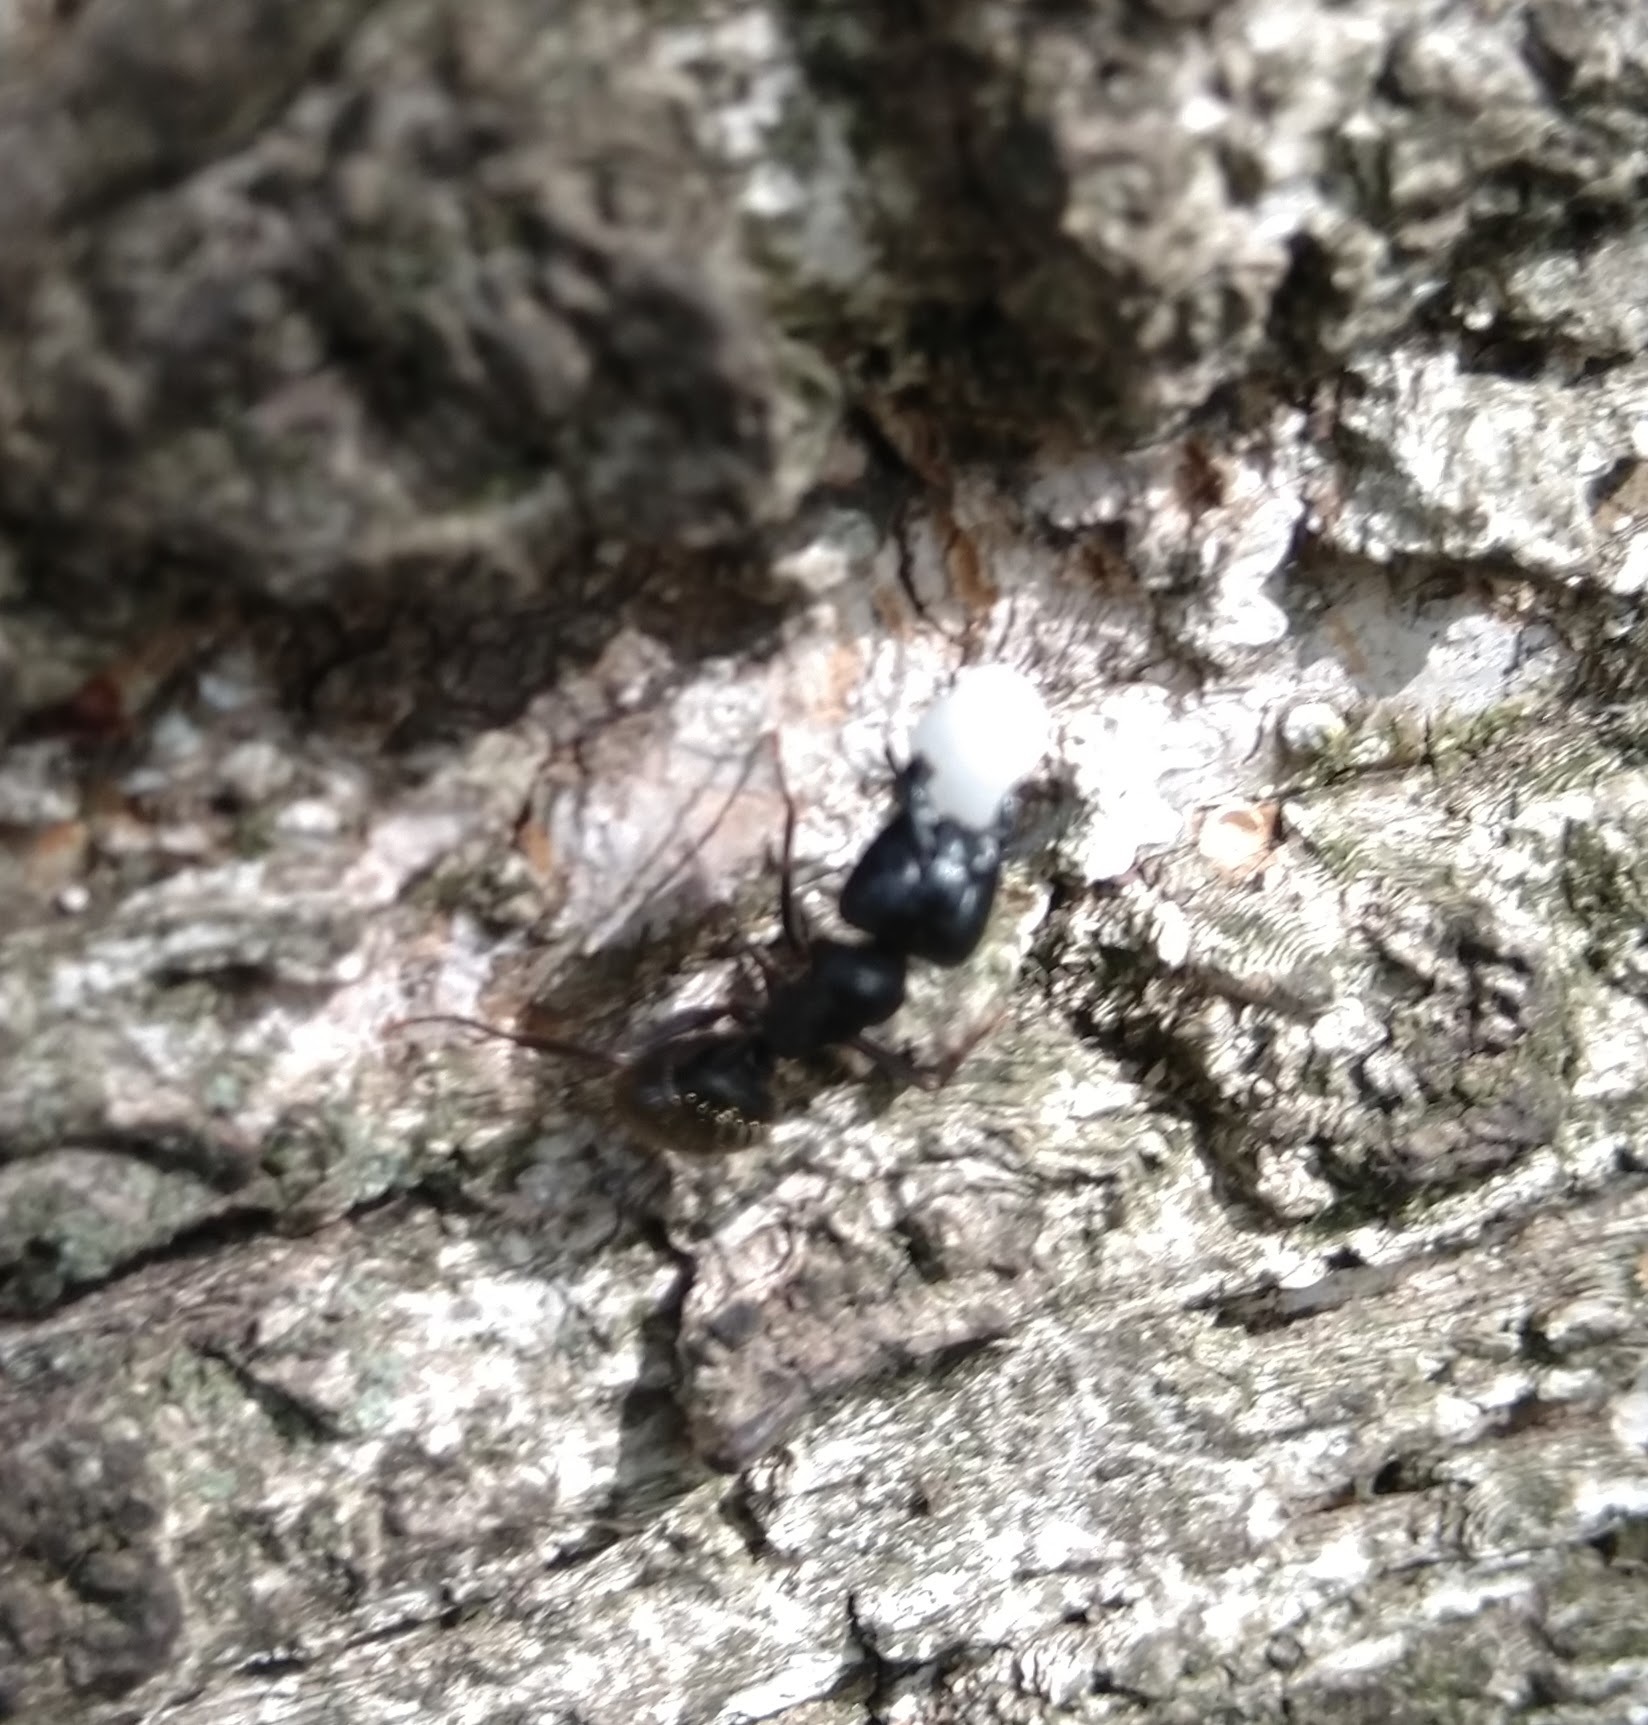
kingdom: Animalia
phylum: Arthropoda
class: Insecta
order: Hymenoptera
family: Formicidae
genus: Camponotus
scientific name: Camponotus pennsylvanicus
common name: Black carpenter ant
